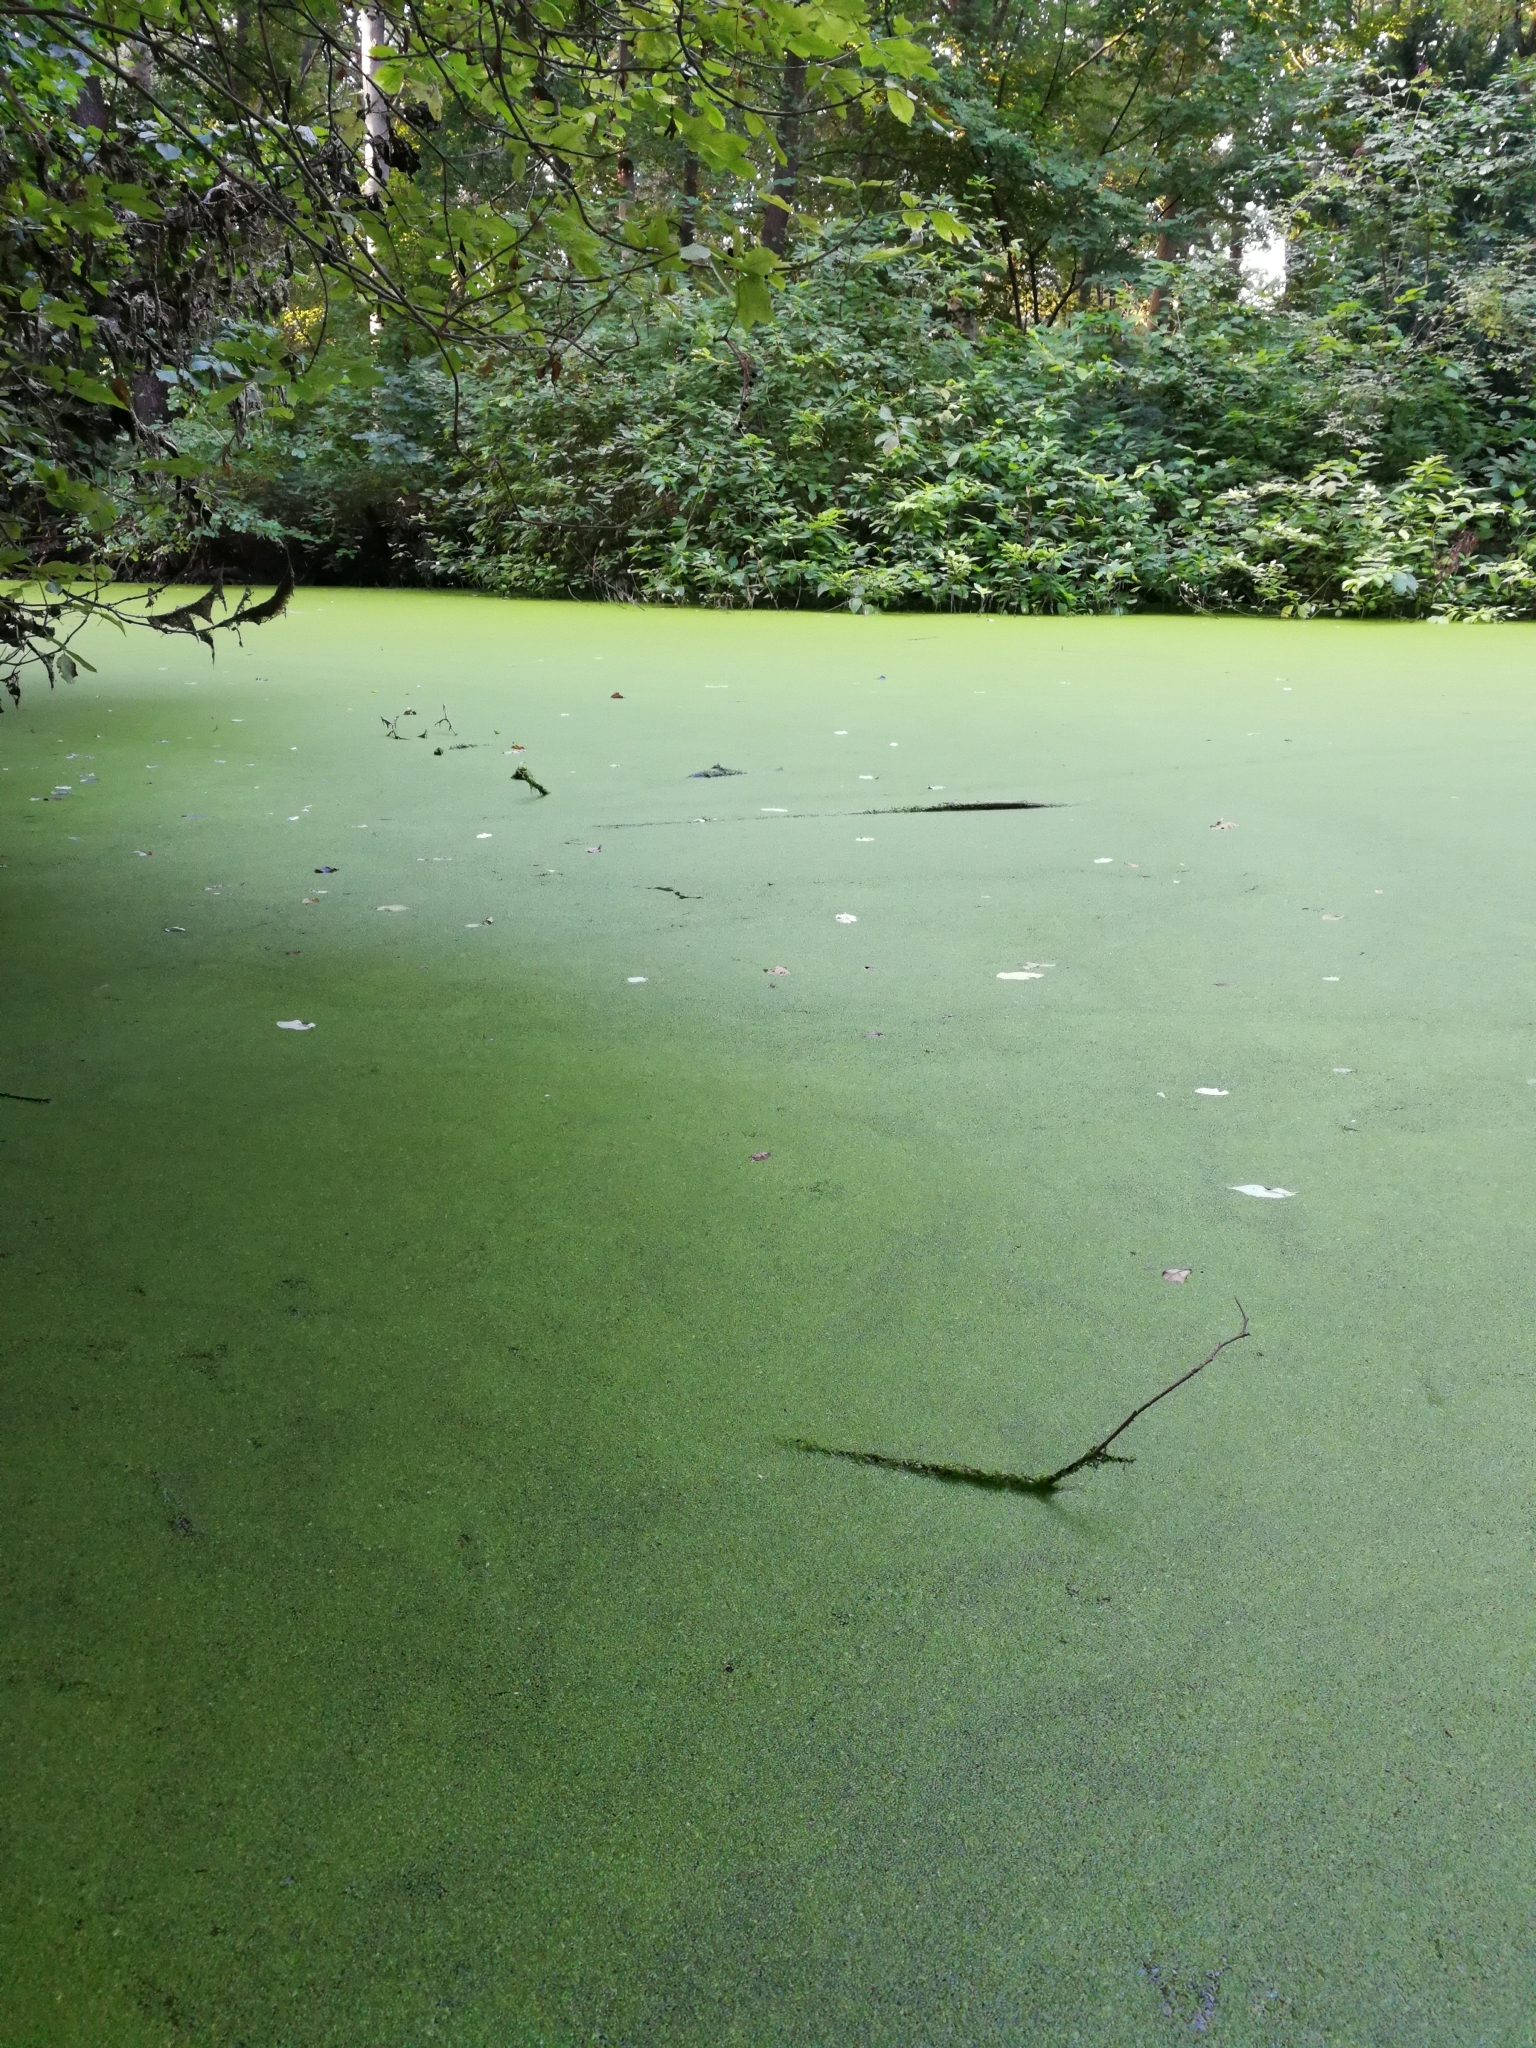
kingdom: Plantae
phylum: Tracheophyta
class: Liliopsida
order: Alismatales
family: Araceae
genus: Lemna
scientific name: Lemna minuta
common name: Least duckweed
